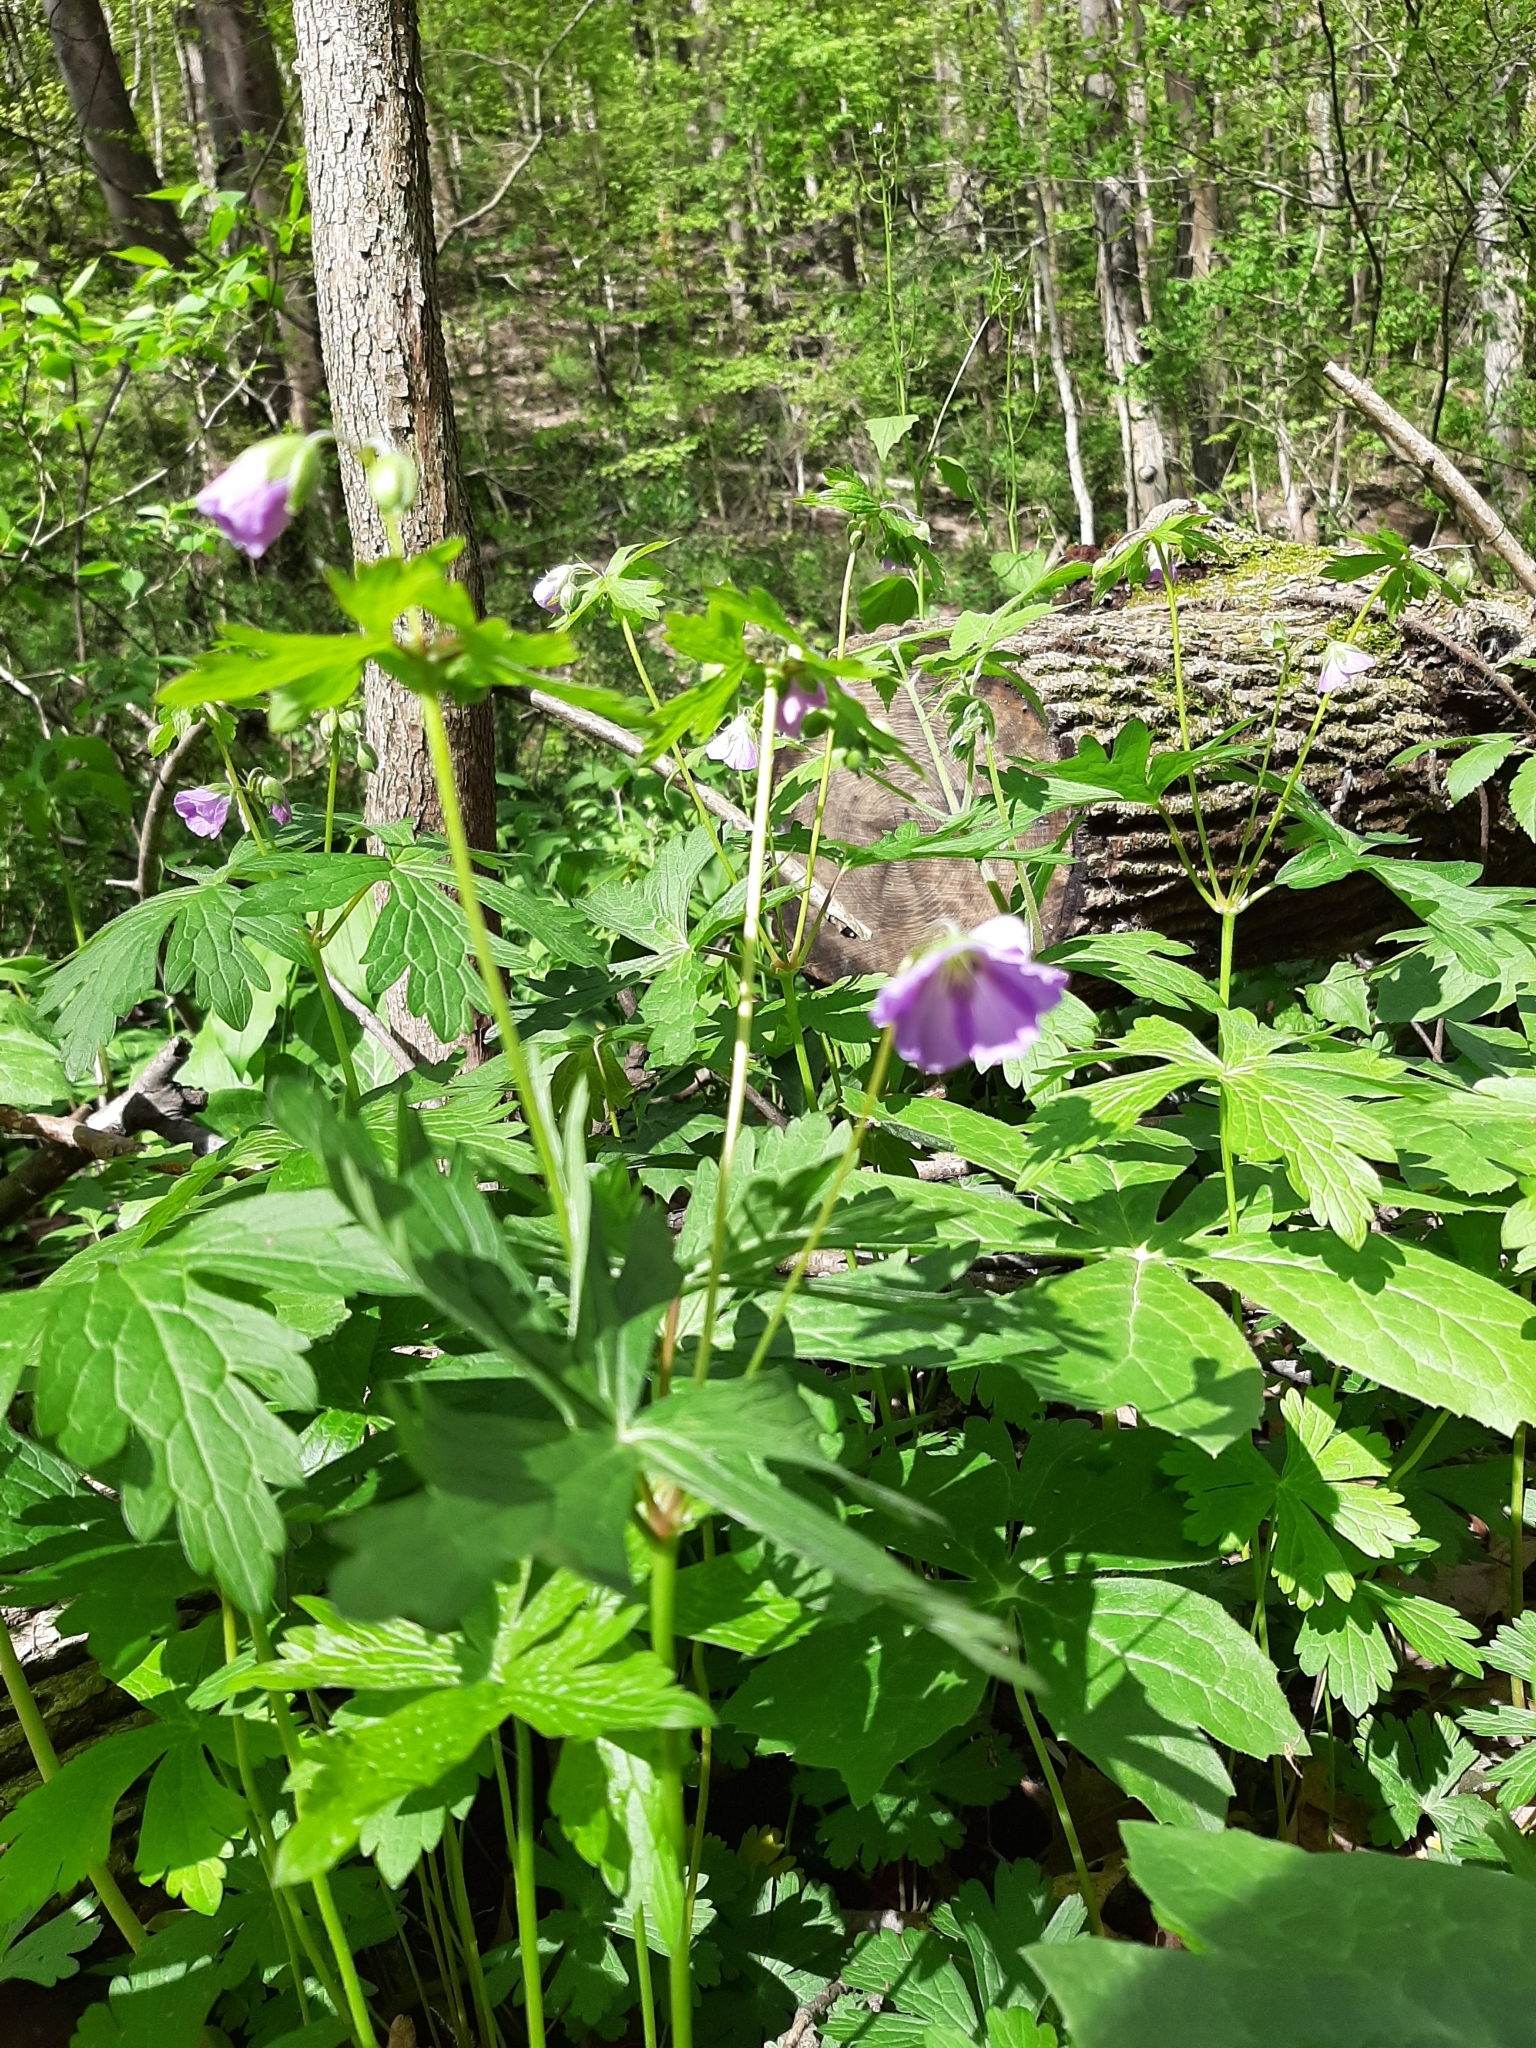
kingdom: Plantae
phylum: Tracheophyta
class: Magnoliopsida
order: Geraniales
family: Geraniaceae
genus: Geranium
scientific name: Geranium maculatum
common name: Spotted geranium
